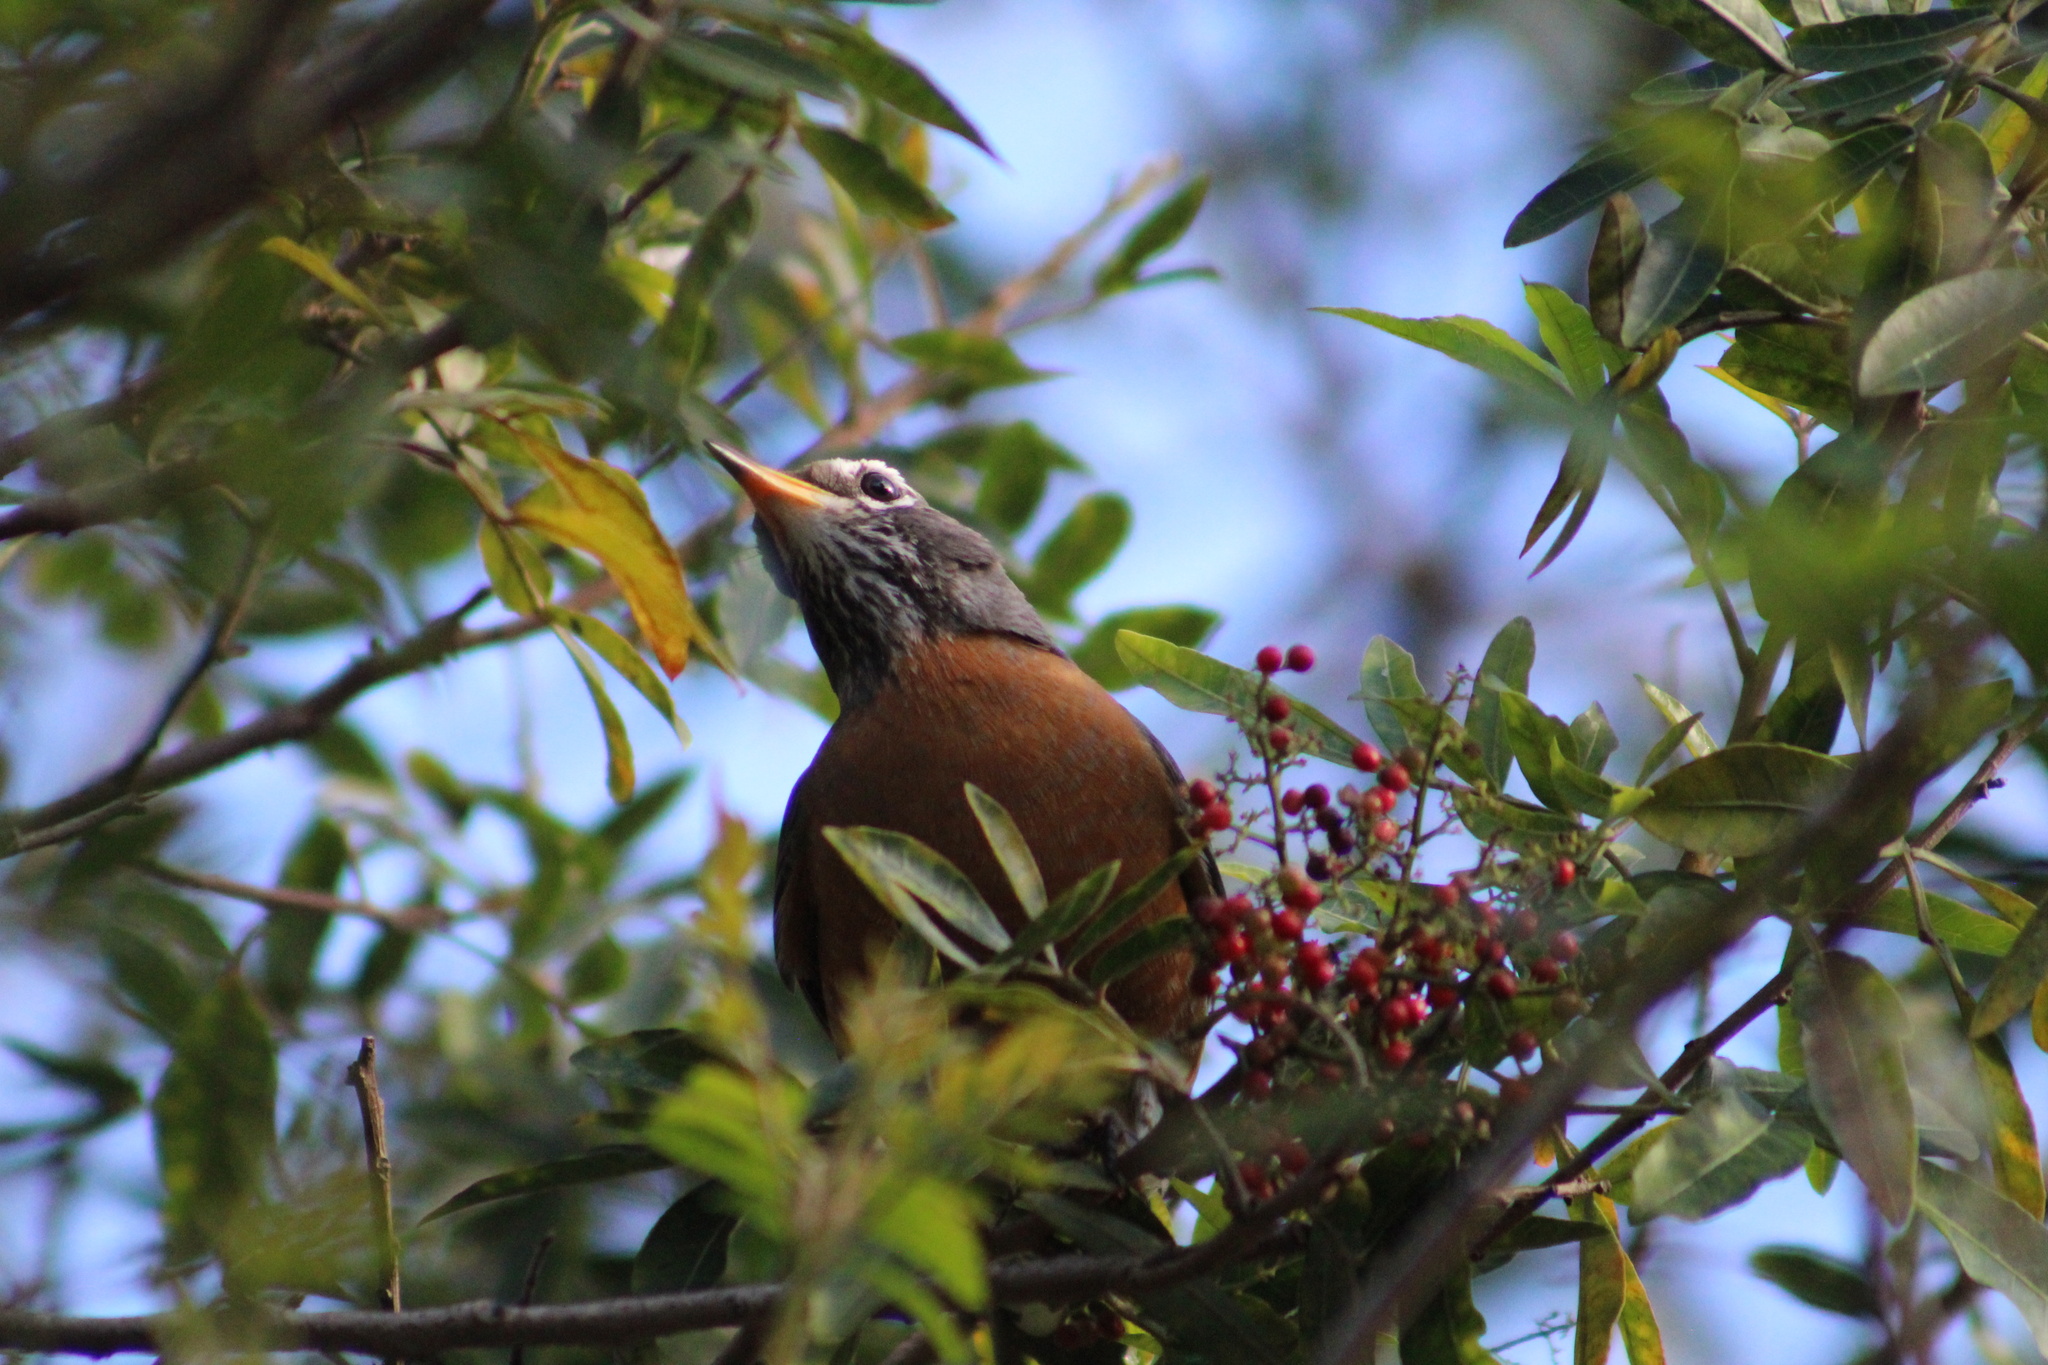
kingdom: Animalia
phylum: Chordata
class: Aves
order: Passeriformes
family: Turdidae
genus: Turdus
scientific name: Turdus migratorius
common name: American robin
